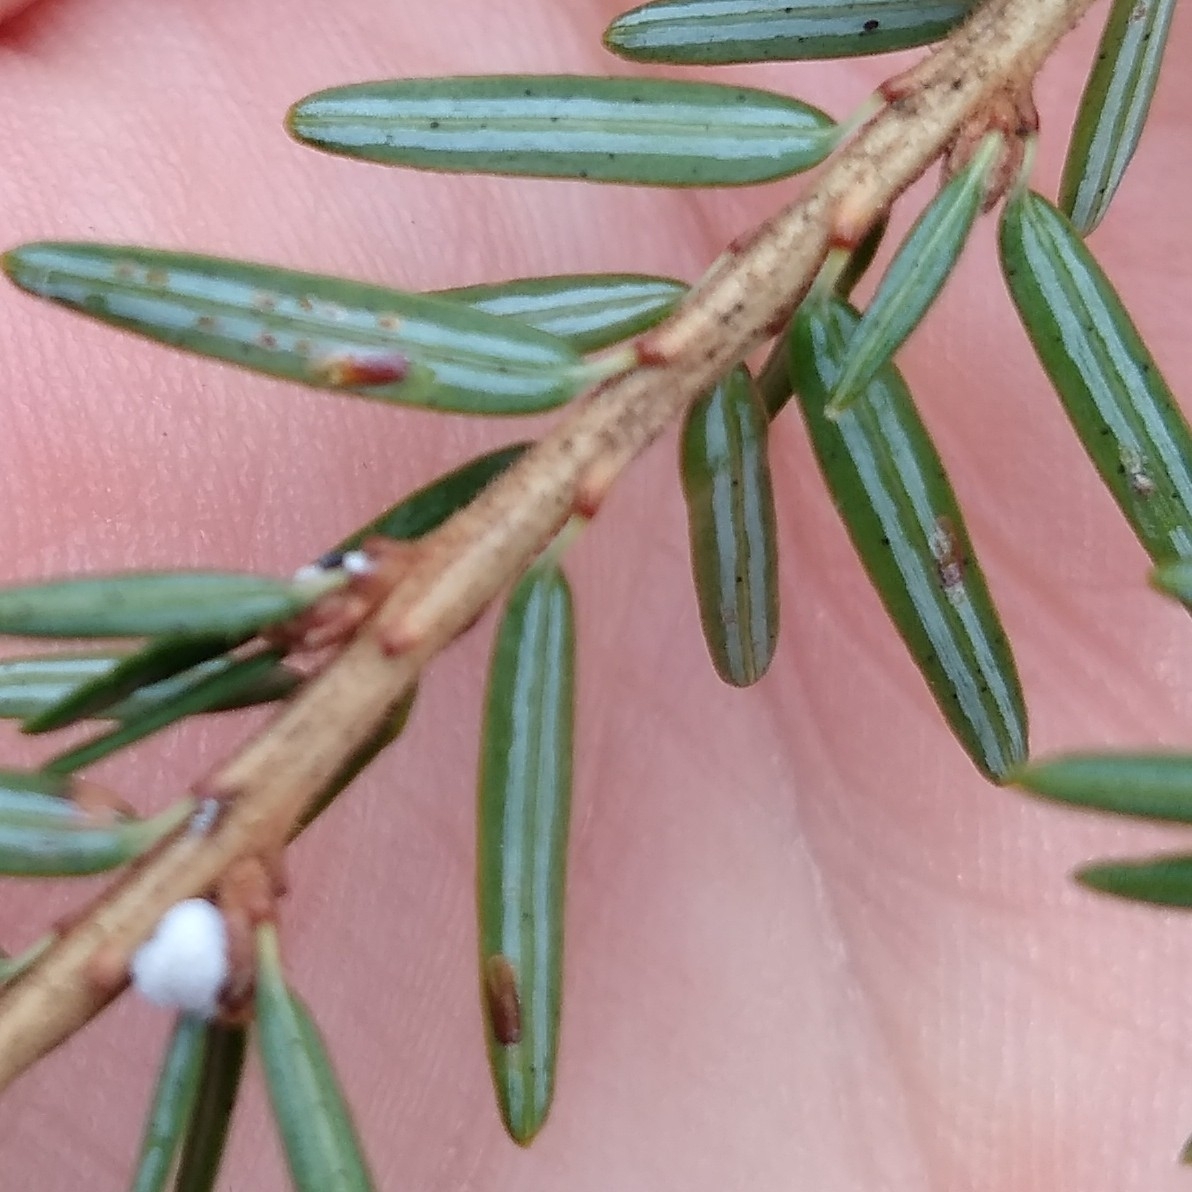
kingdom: Animalia
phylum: Arthropoda
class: Insecta
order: Hemiptera
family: Diaspididae
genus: Fiorinia
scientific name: Fiorinia externa
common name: Elongate hemlock scale
